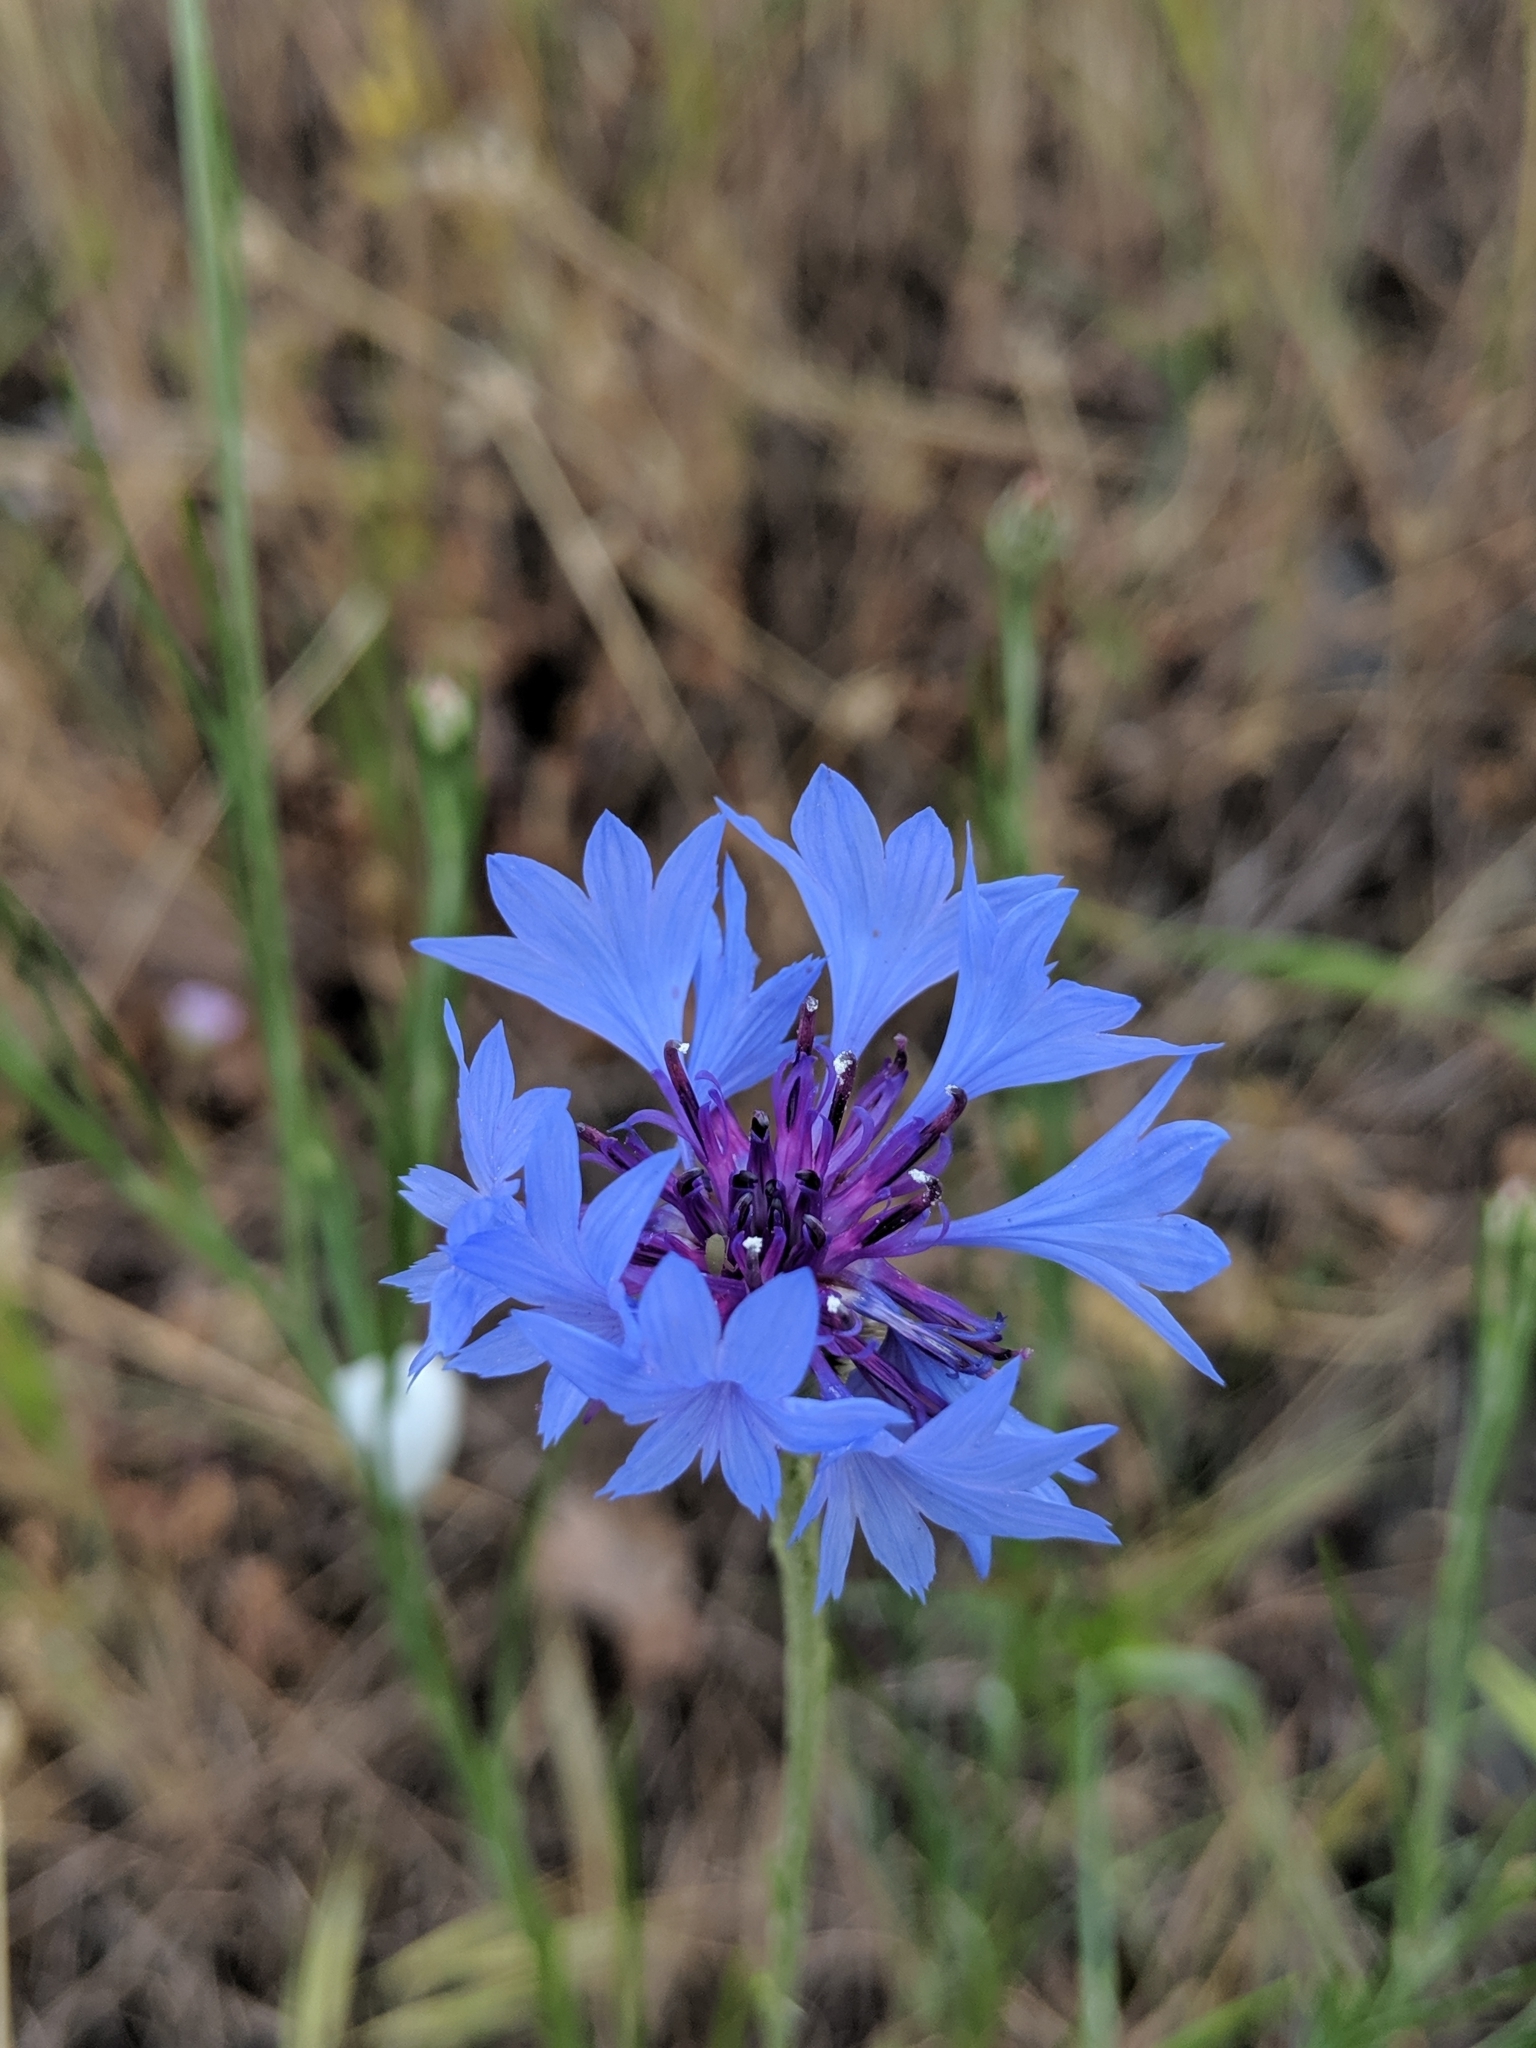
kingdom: Plantae
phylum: Tracheophyta
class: Magnoliopsida
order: Asterales
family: Asteraceae
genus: Centaurea
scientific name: Centaurea cyanus
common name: Cornflower
